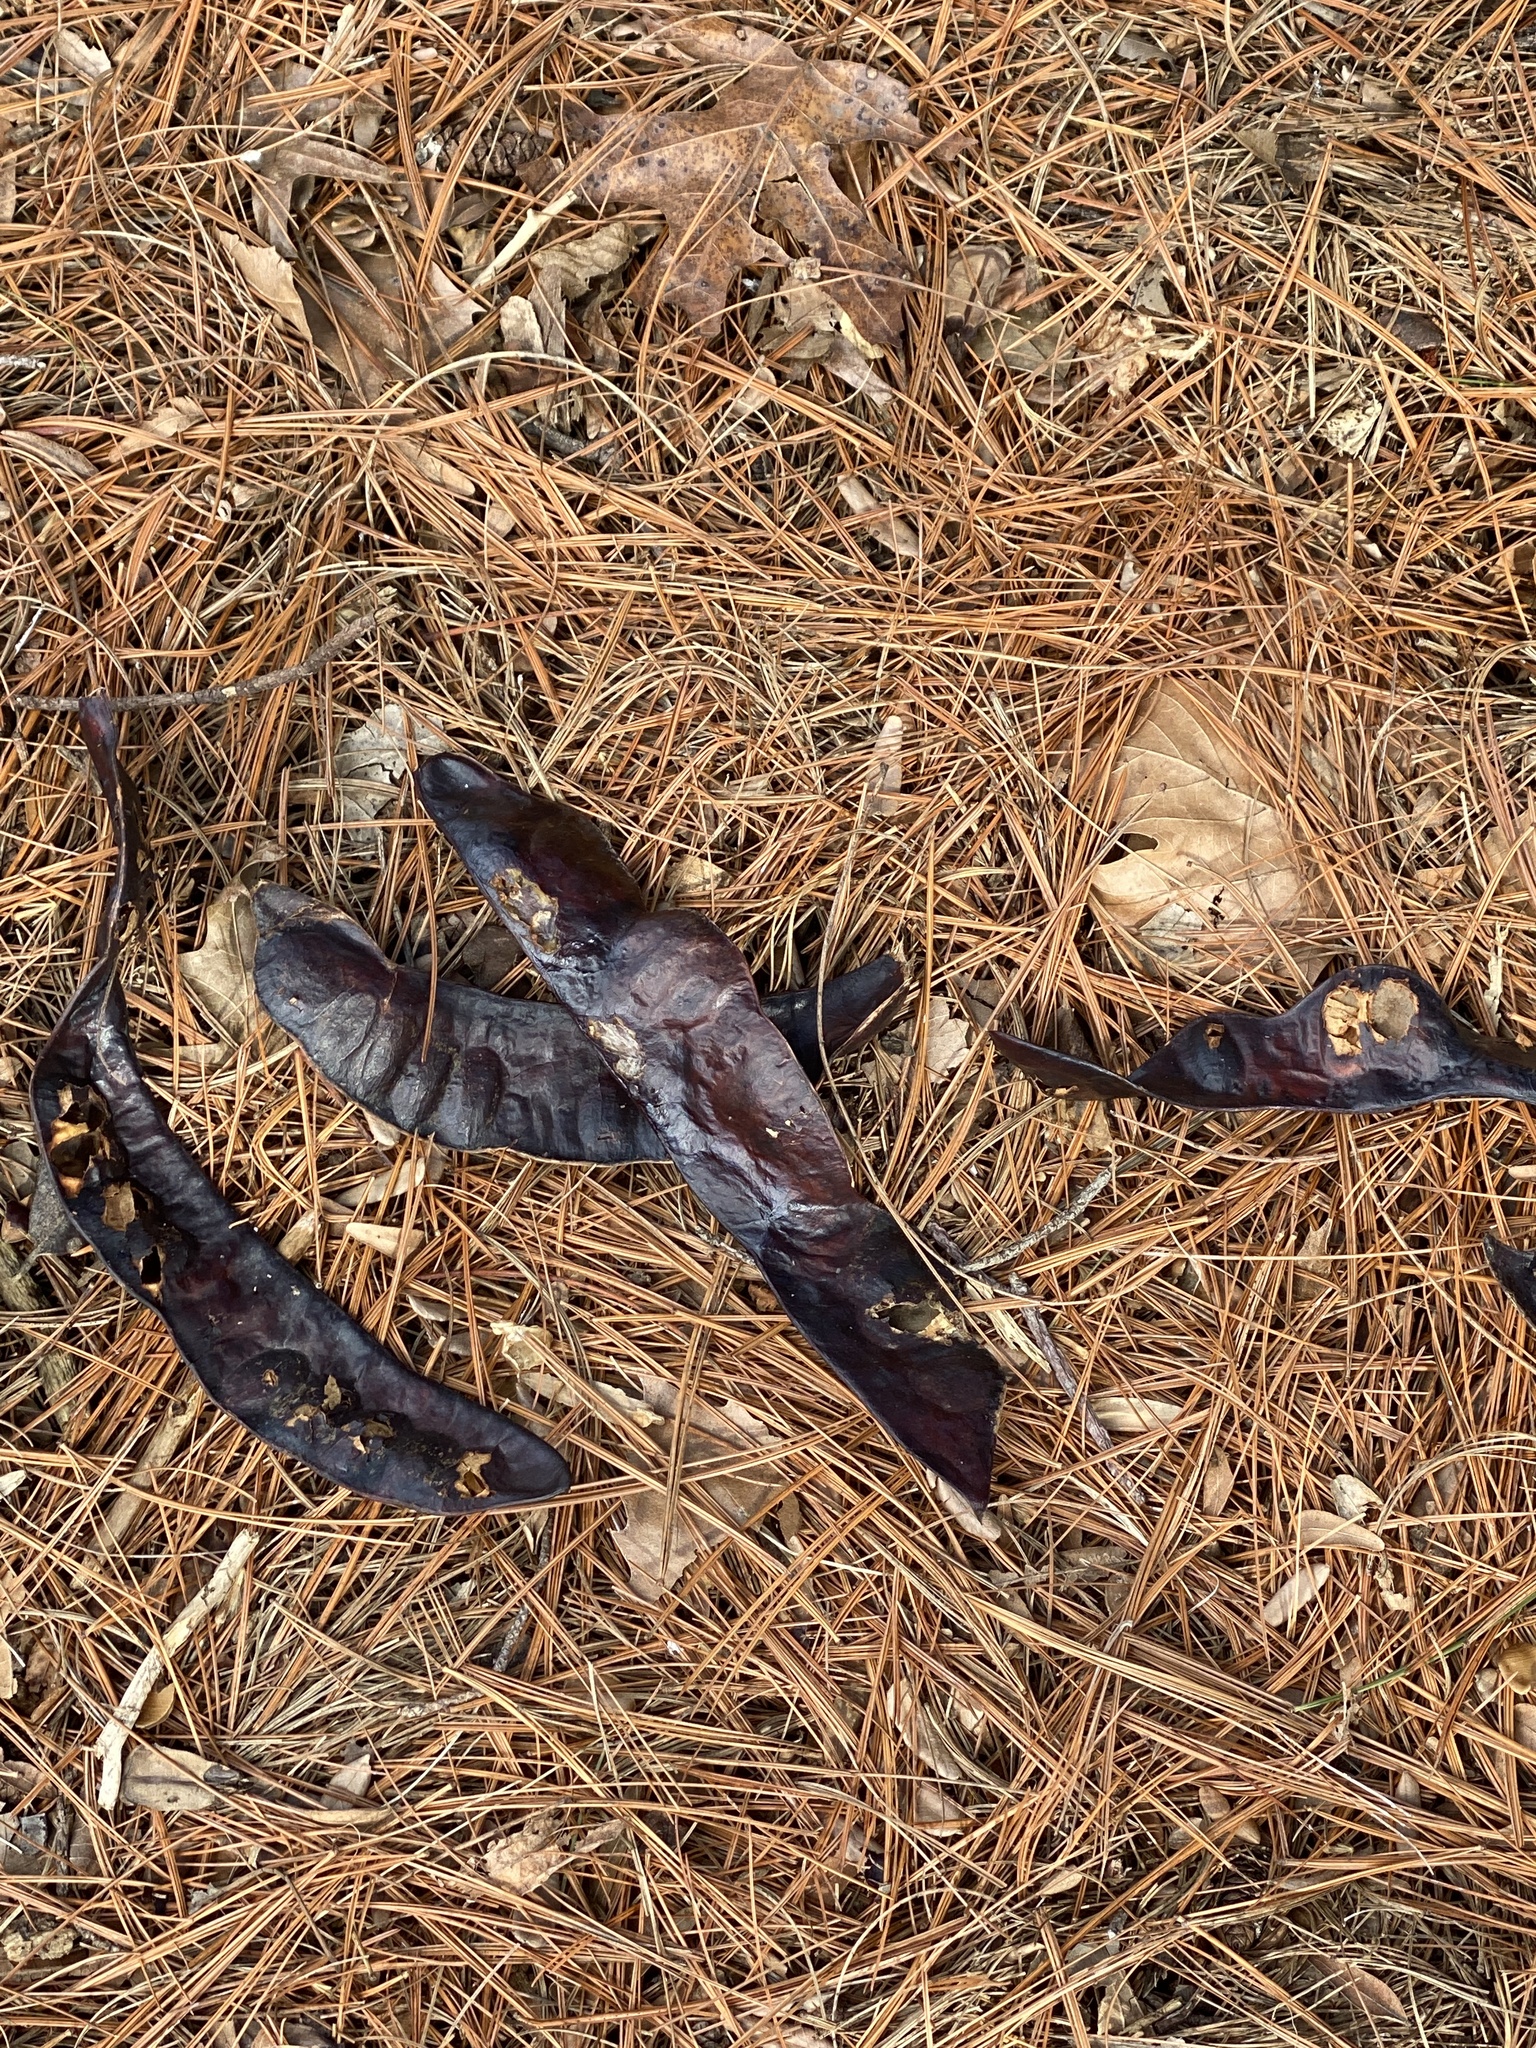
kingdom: Plantae
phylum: Tracheophyta
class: Magnoliopsida
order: Fabales
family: Fabaceae
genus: Gleditsia
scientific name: Gleditsia triacanthos
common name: Common honeylocust
